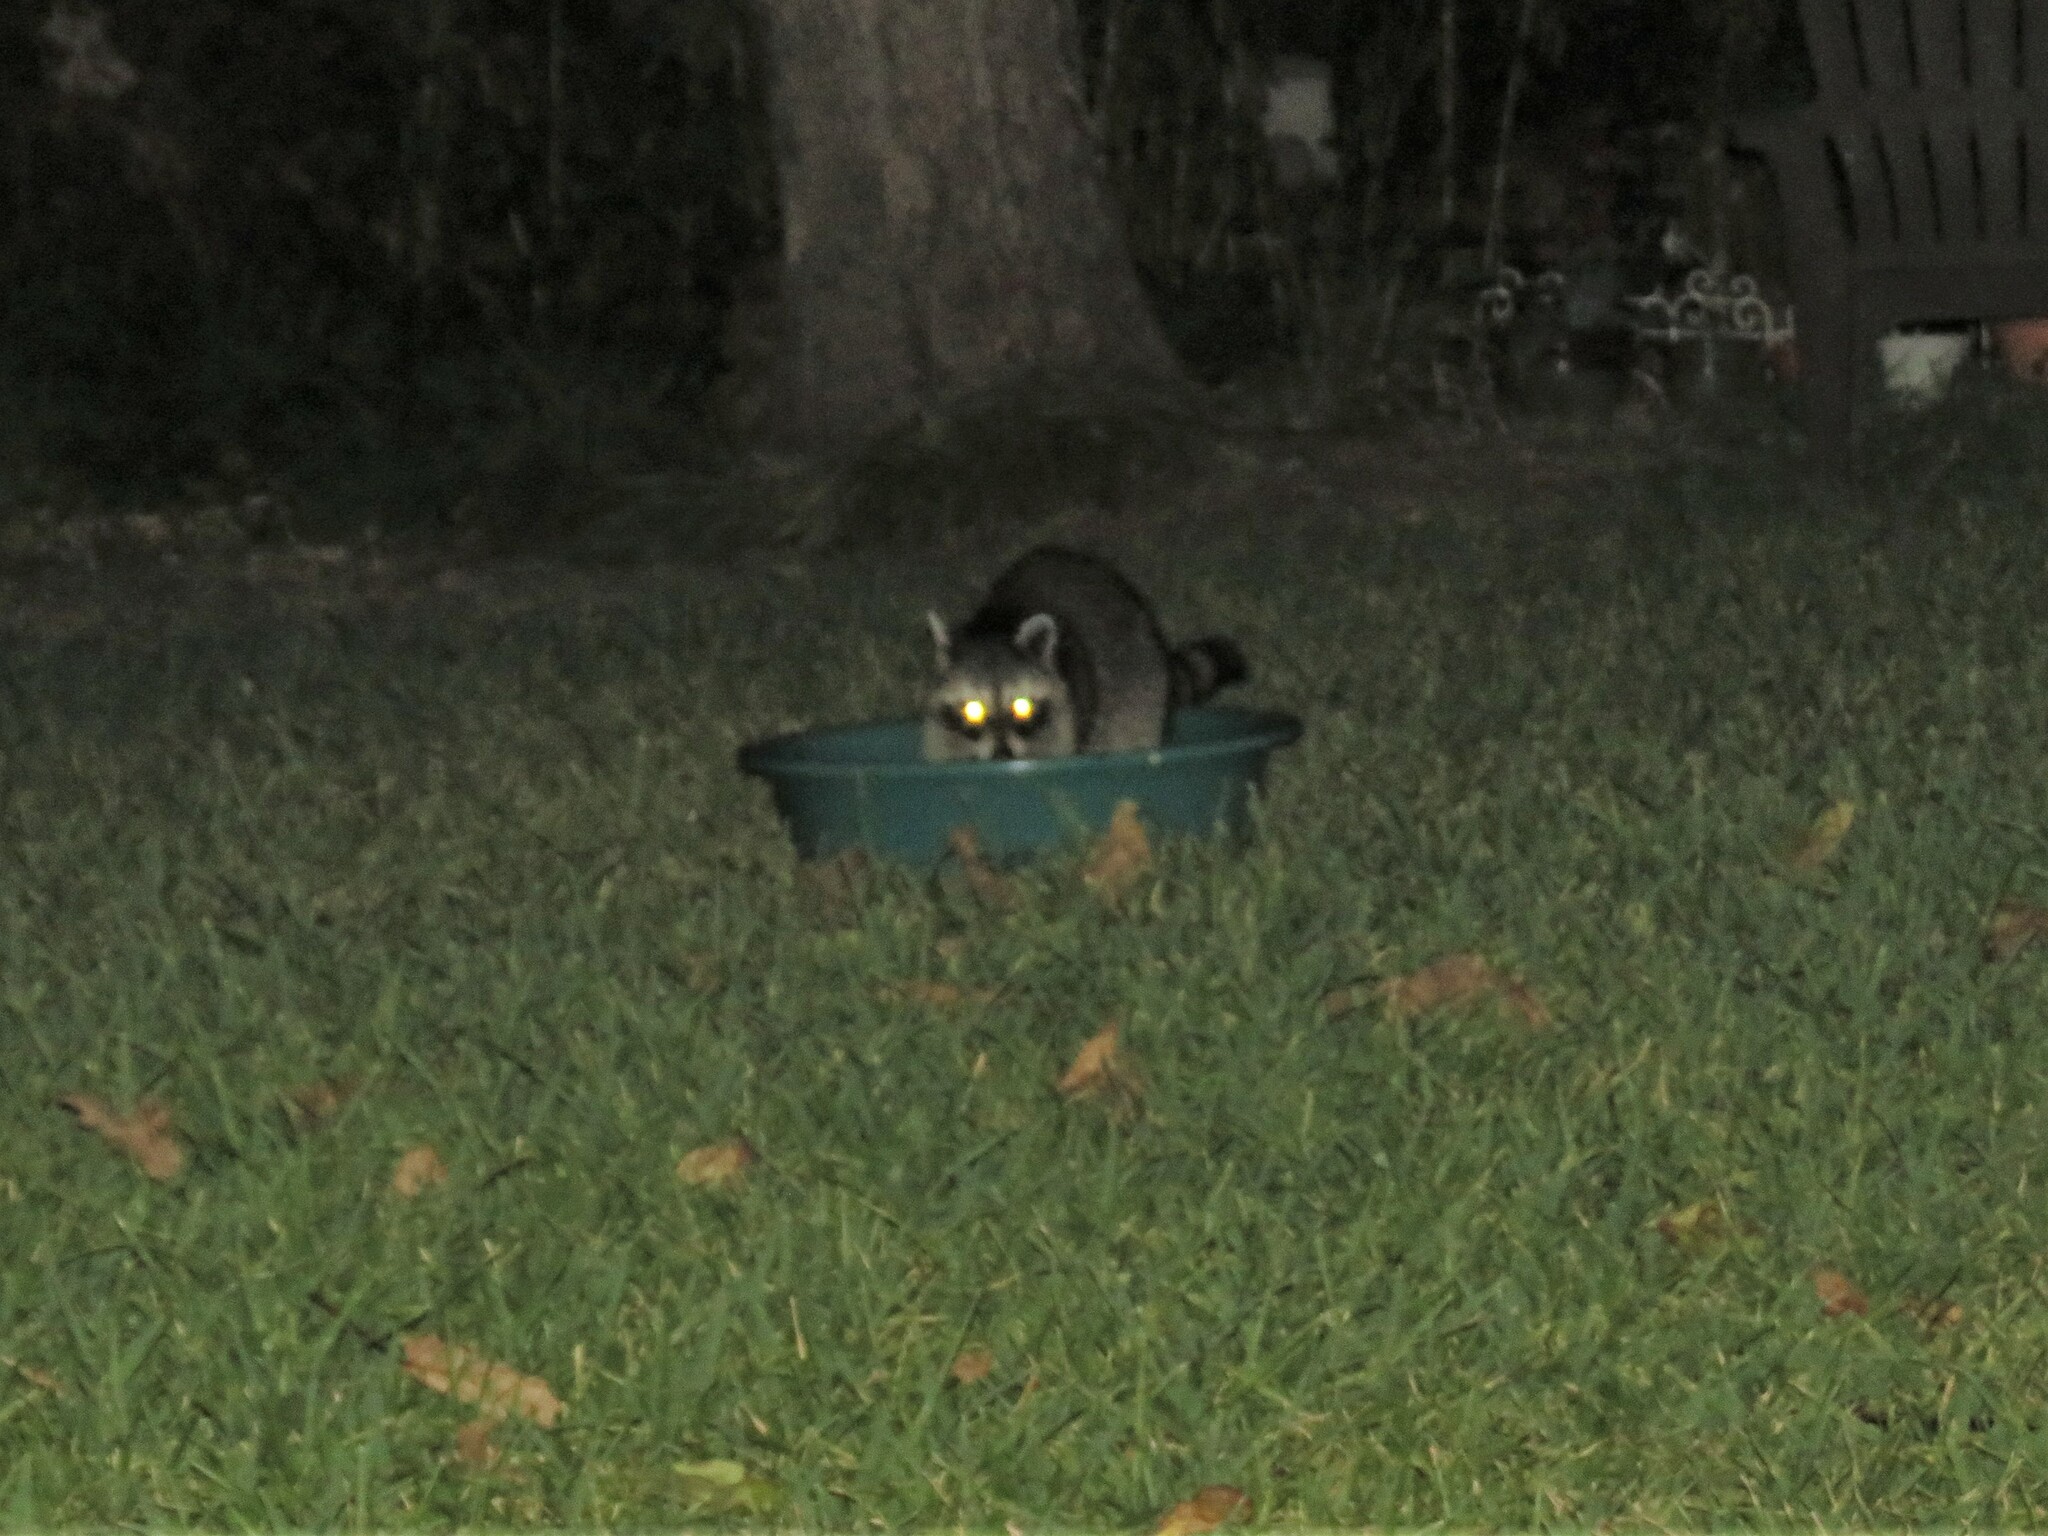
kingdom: Animalia
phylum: Chordata
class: Mammalia
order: Carnivora
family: Procyonidae
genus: Procyon
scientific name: Procyon lotor
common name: Raccoon
